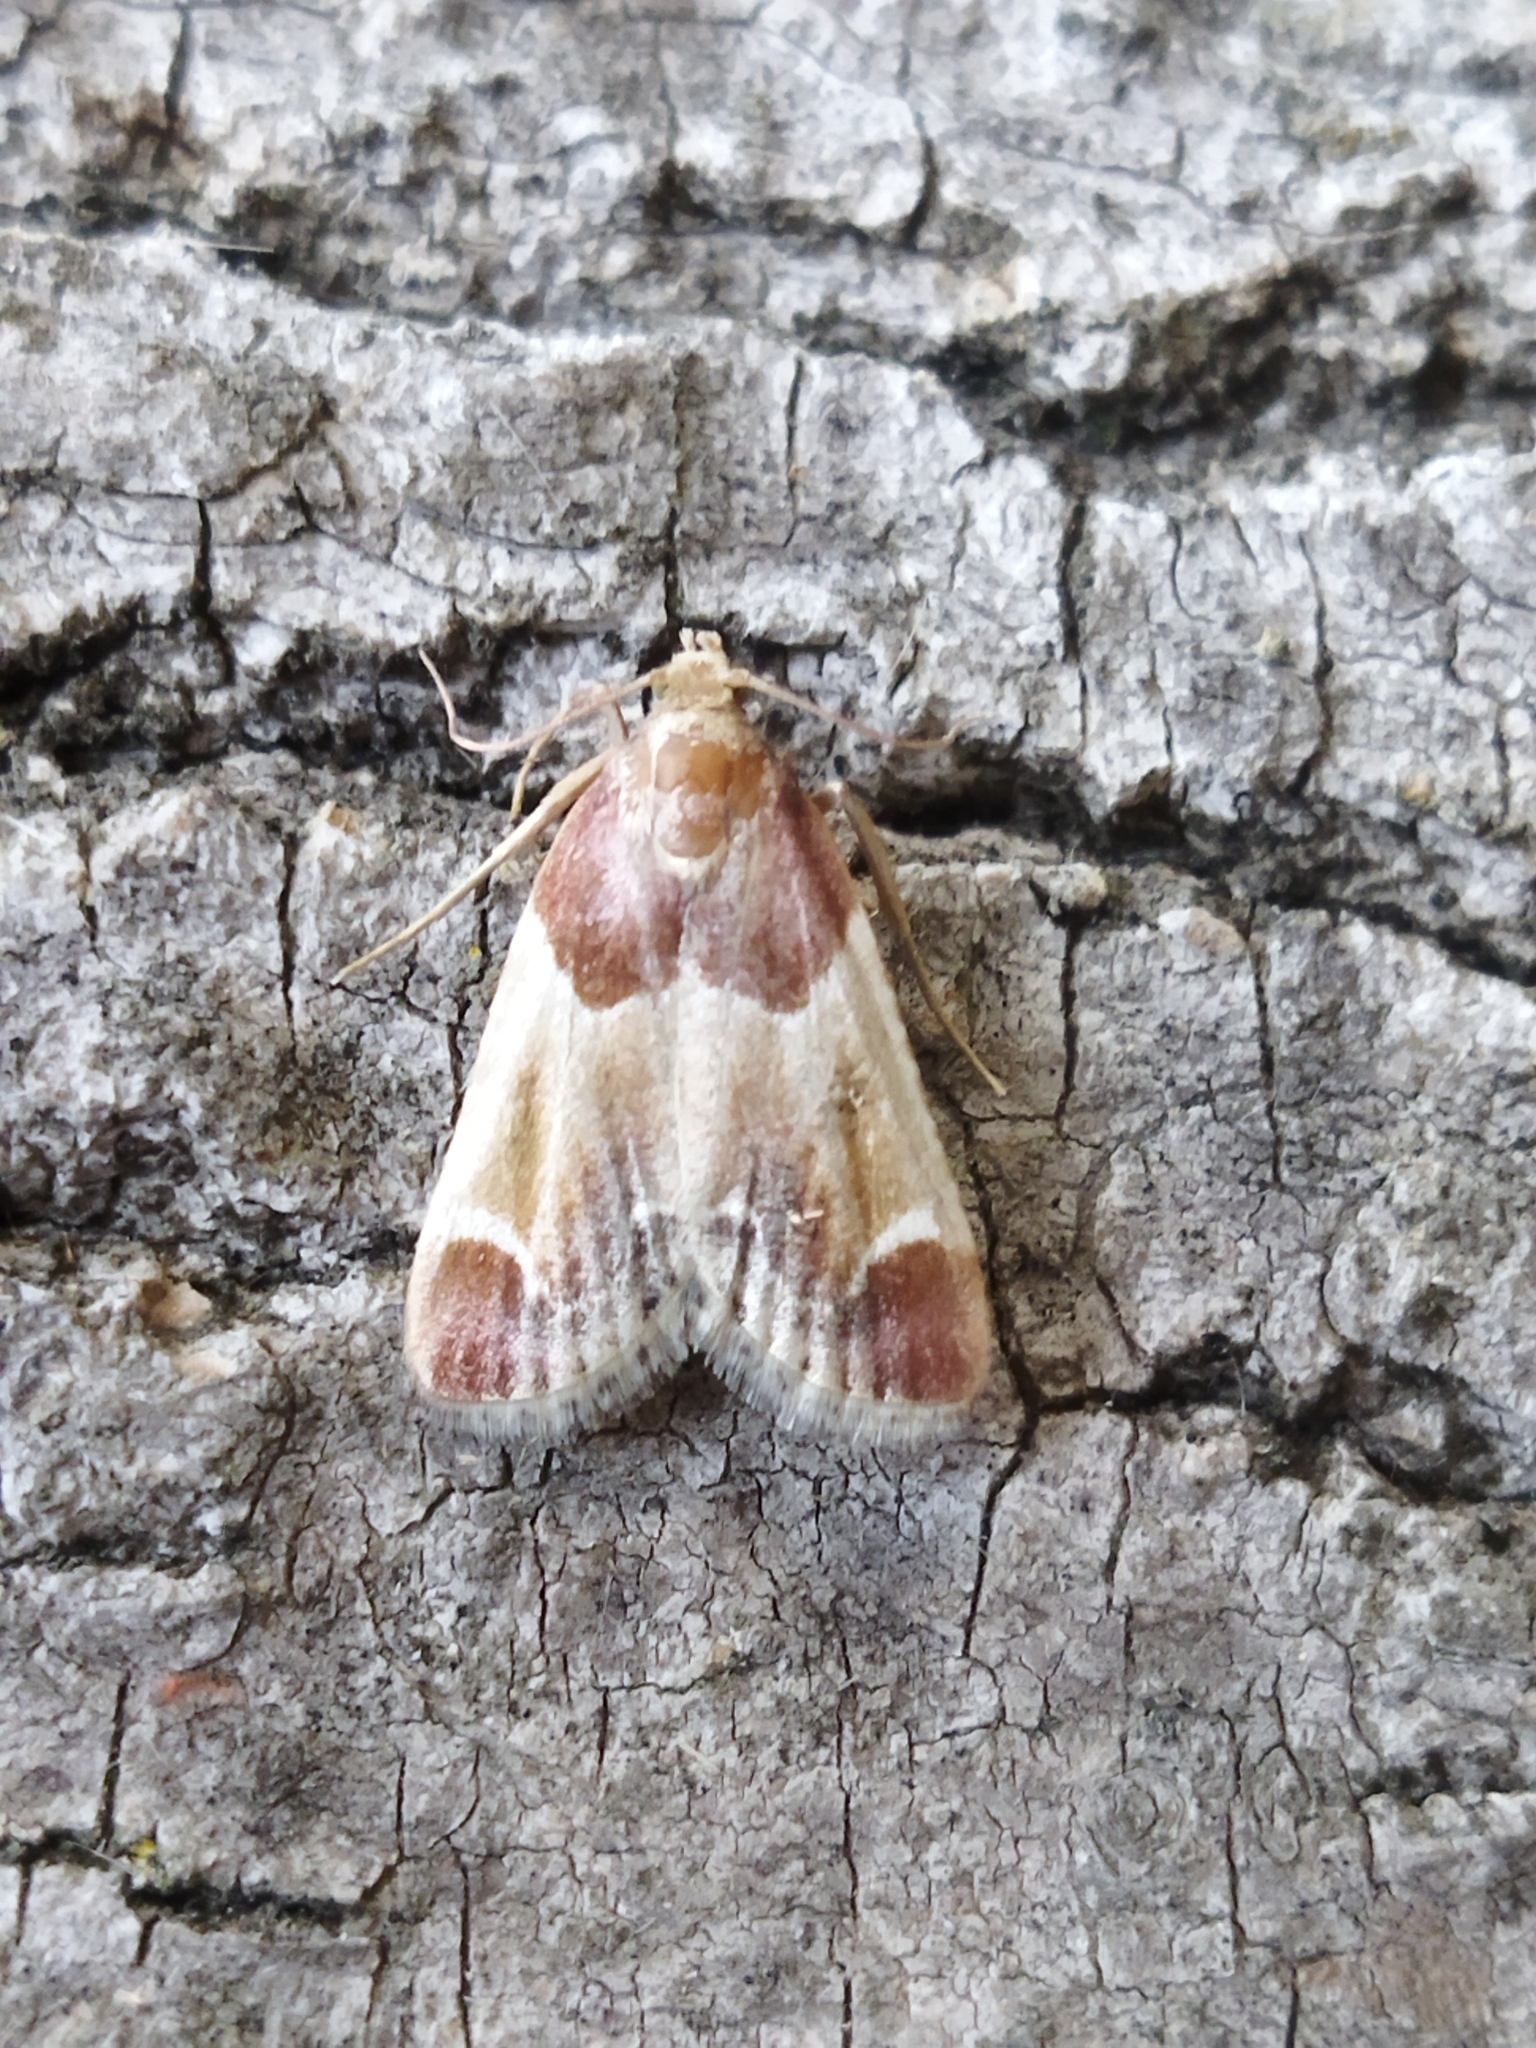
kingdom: Animalia
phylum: Arthropoda
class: Insecta
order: Lepidoptera
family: Pyralidae
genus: Pyralis
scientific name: Pyralis farinalis
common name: Meal moth
